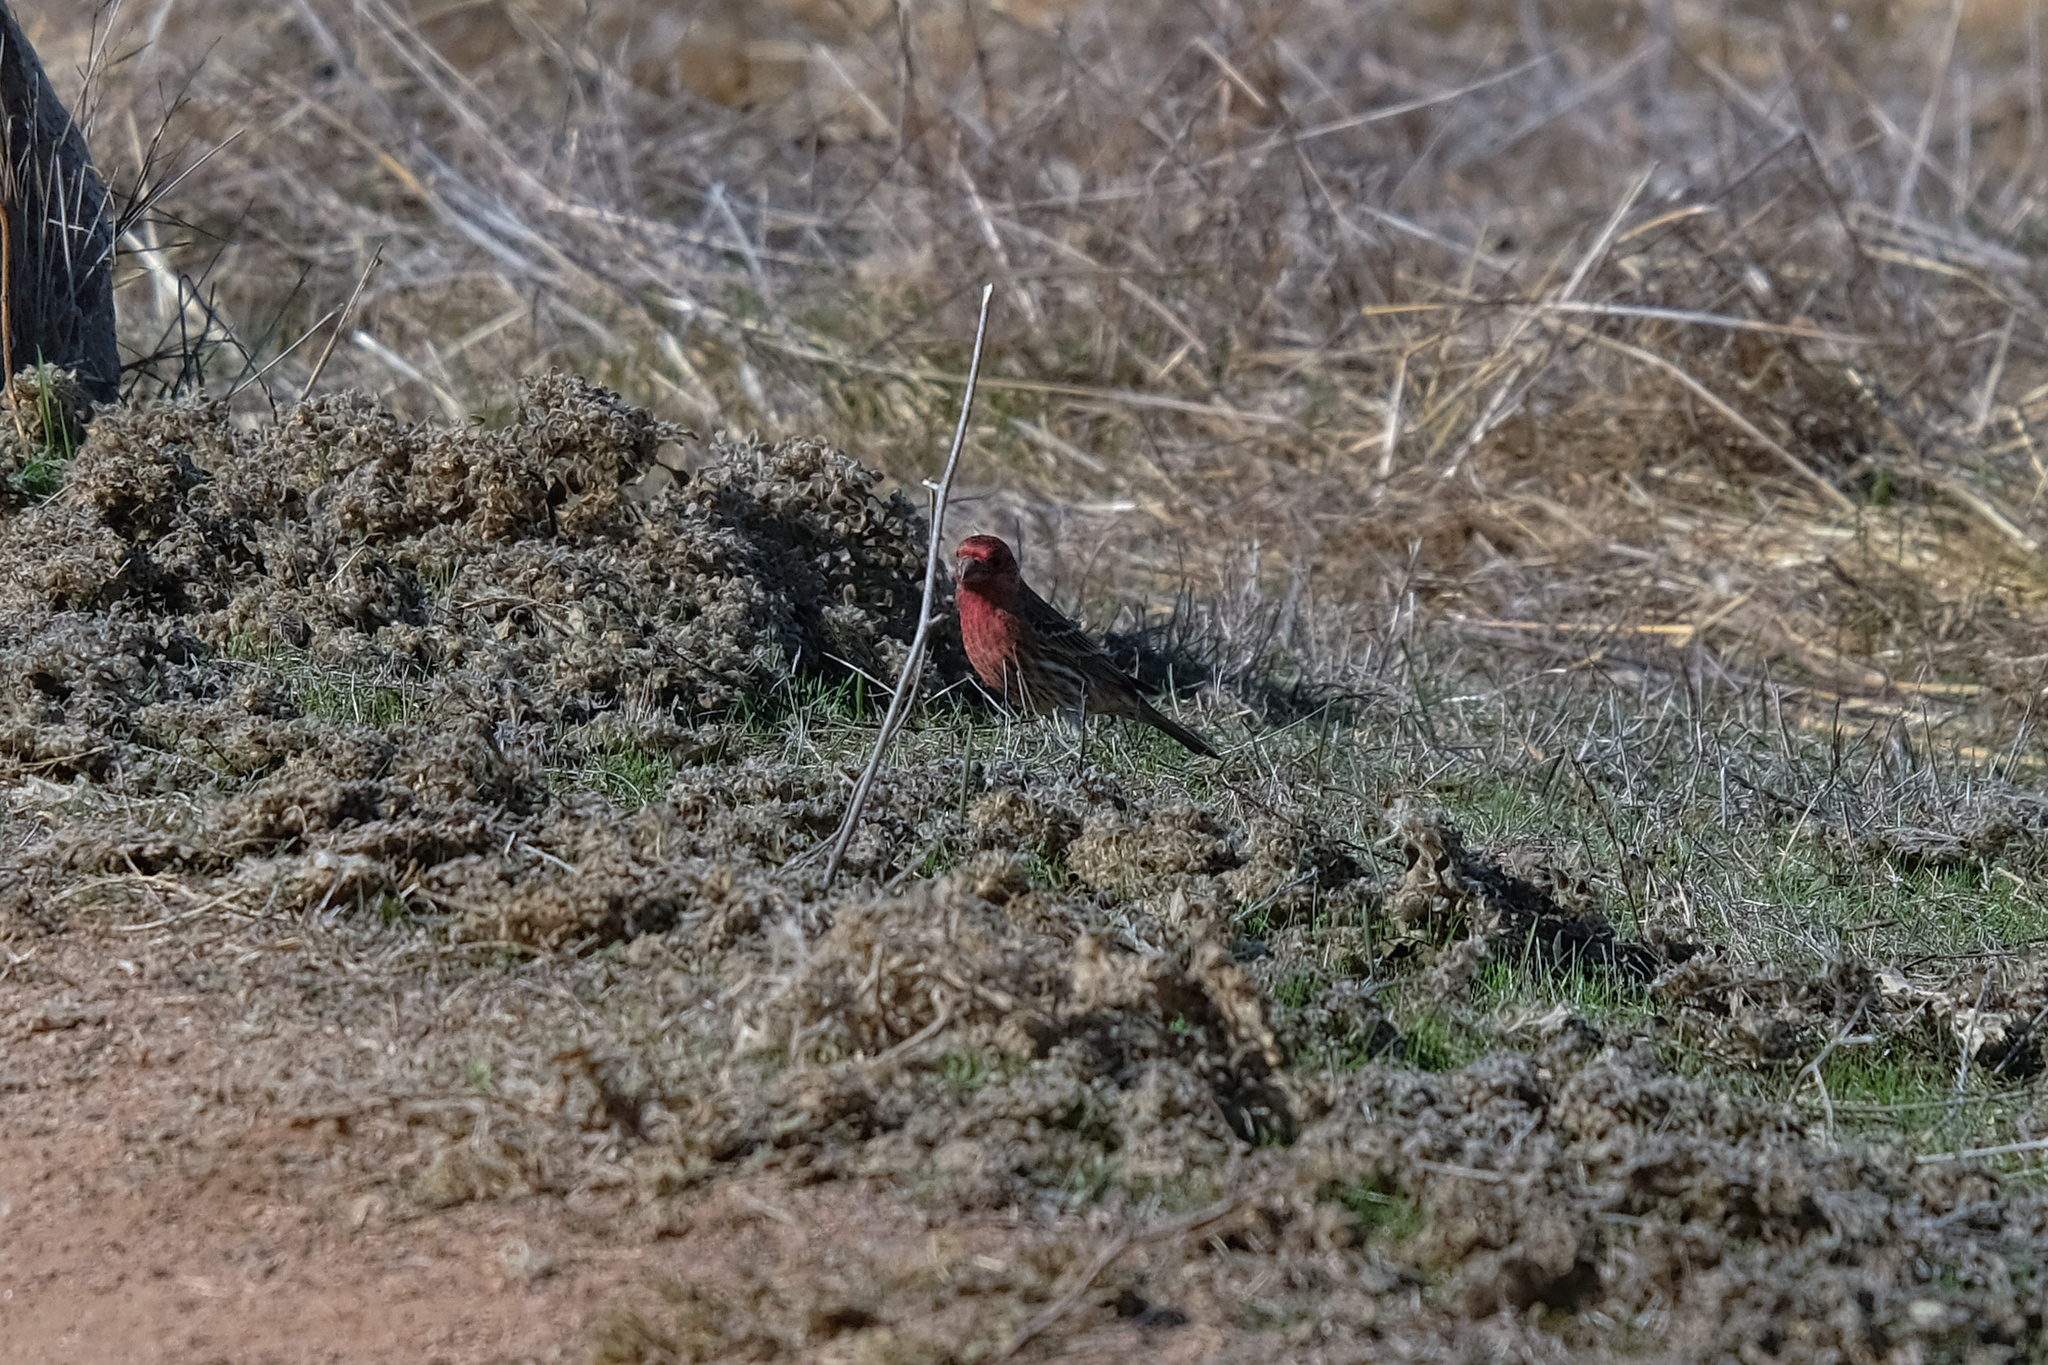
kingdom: Animalia
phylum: Chordata
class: Aves
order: Passeriformes
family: Fringillidae
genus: Haemorhous
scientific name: Haemorhous mexicanus
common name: House finch
